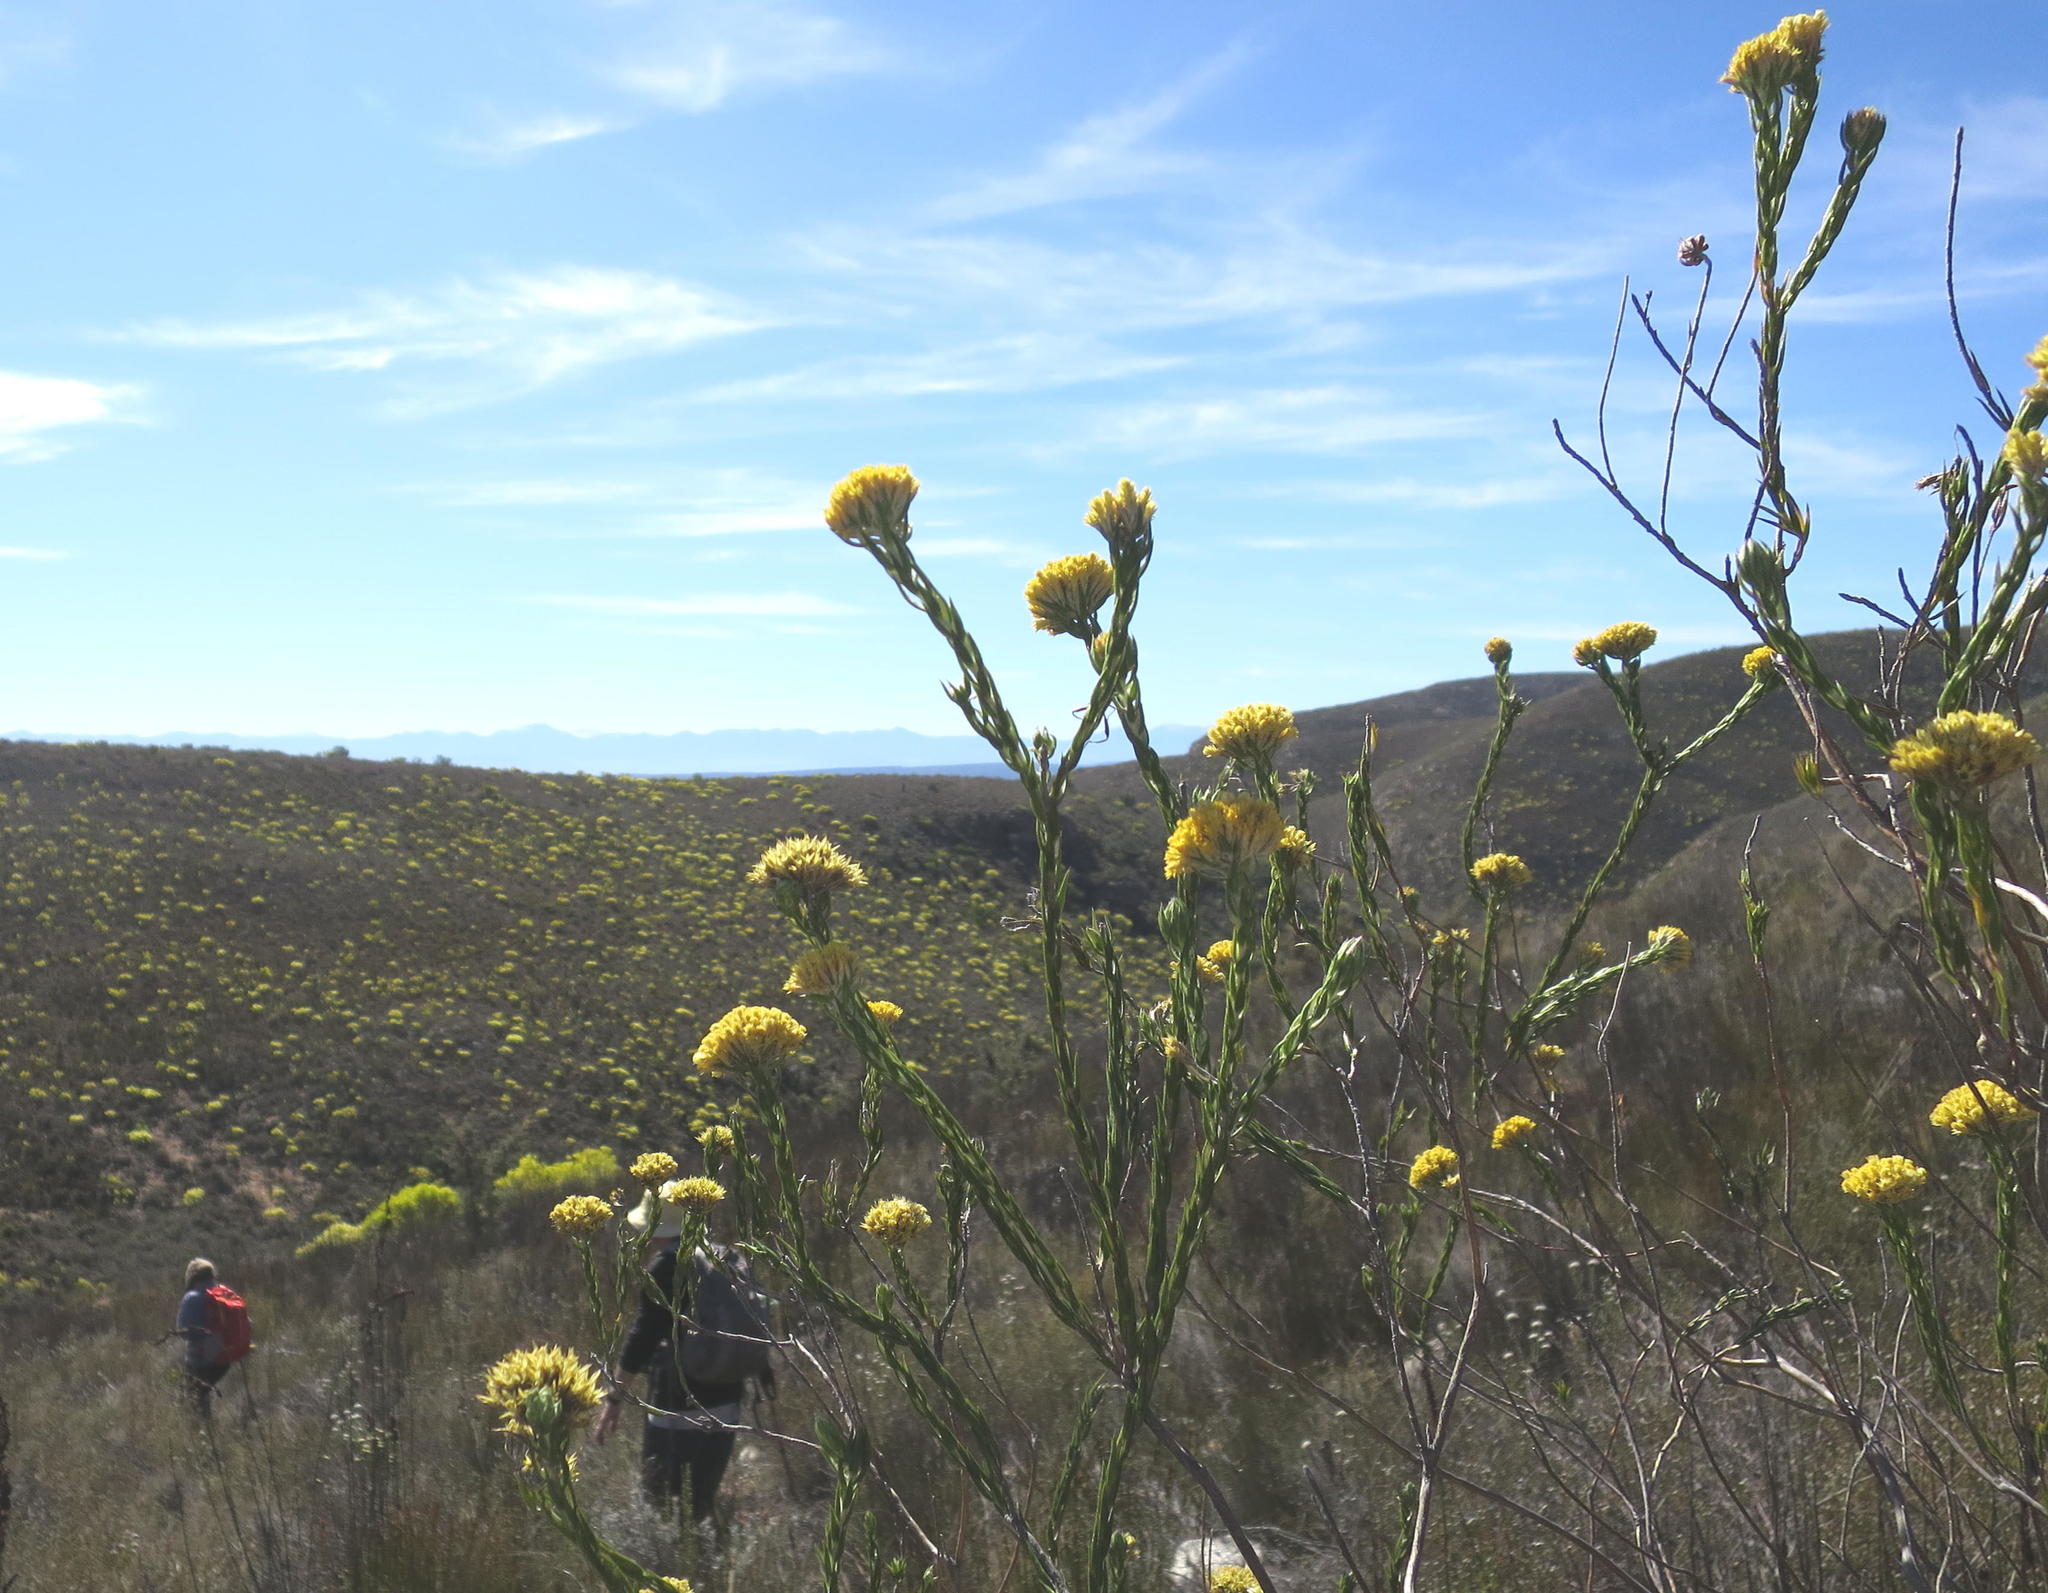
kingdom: Plantae
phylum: Tracheophyta
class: Magnoliopsida
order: Asterales
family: Asteraceae
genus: Metalasia
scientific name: Metalasia pulcherrima
